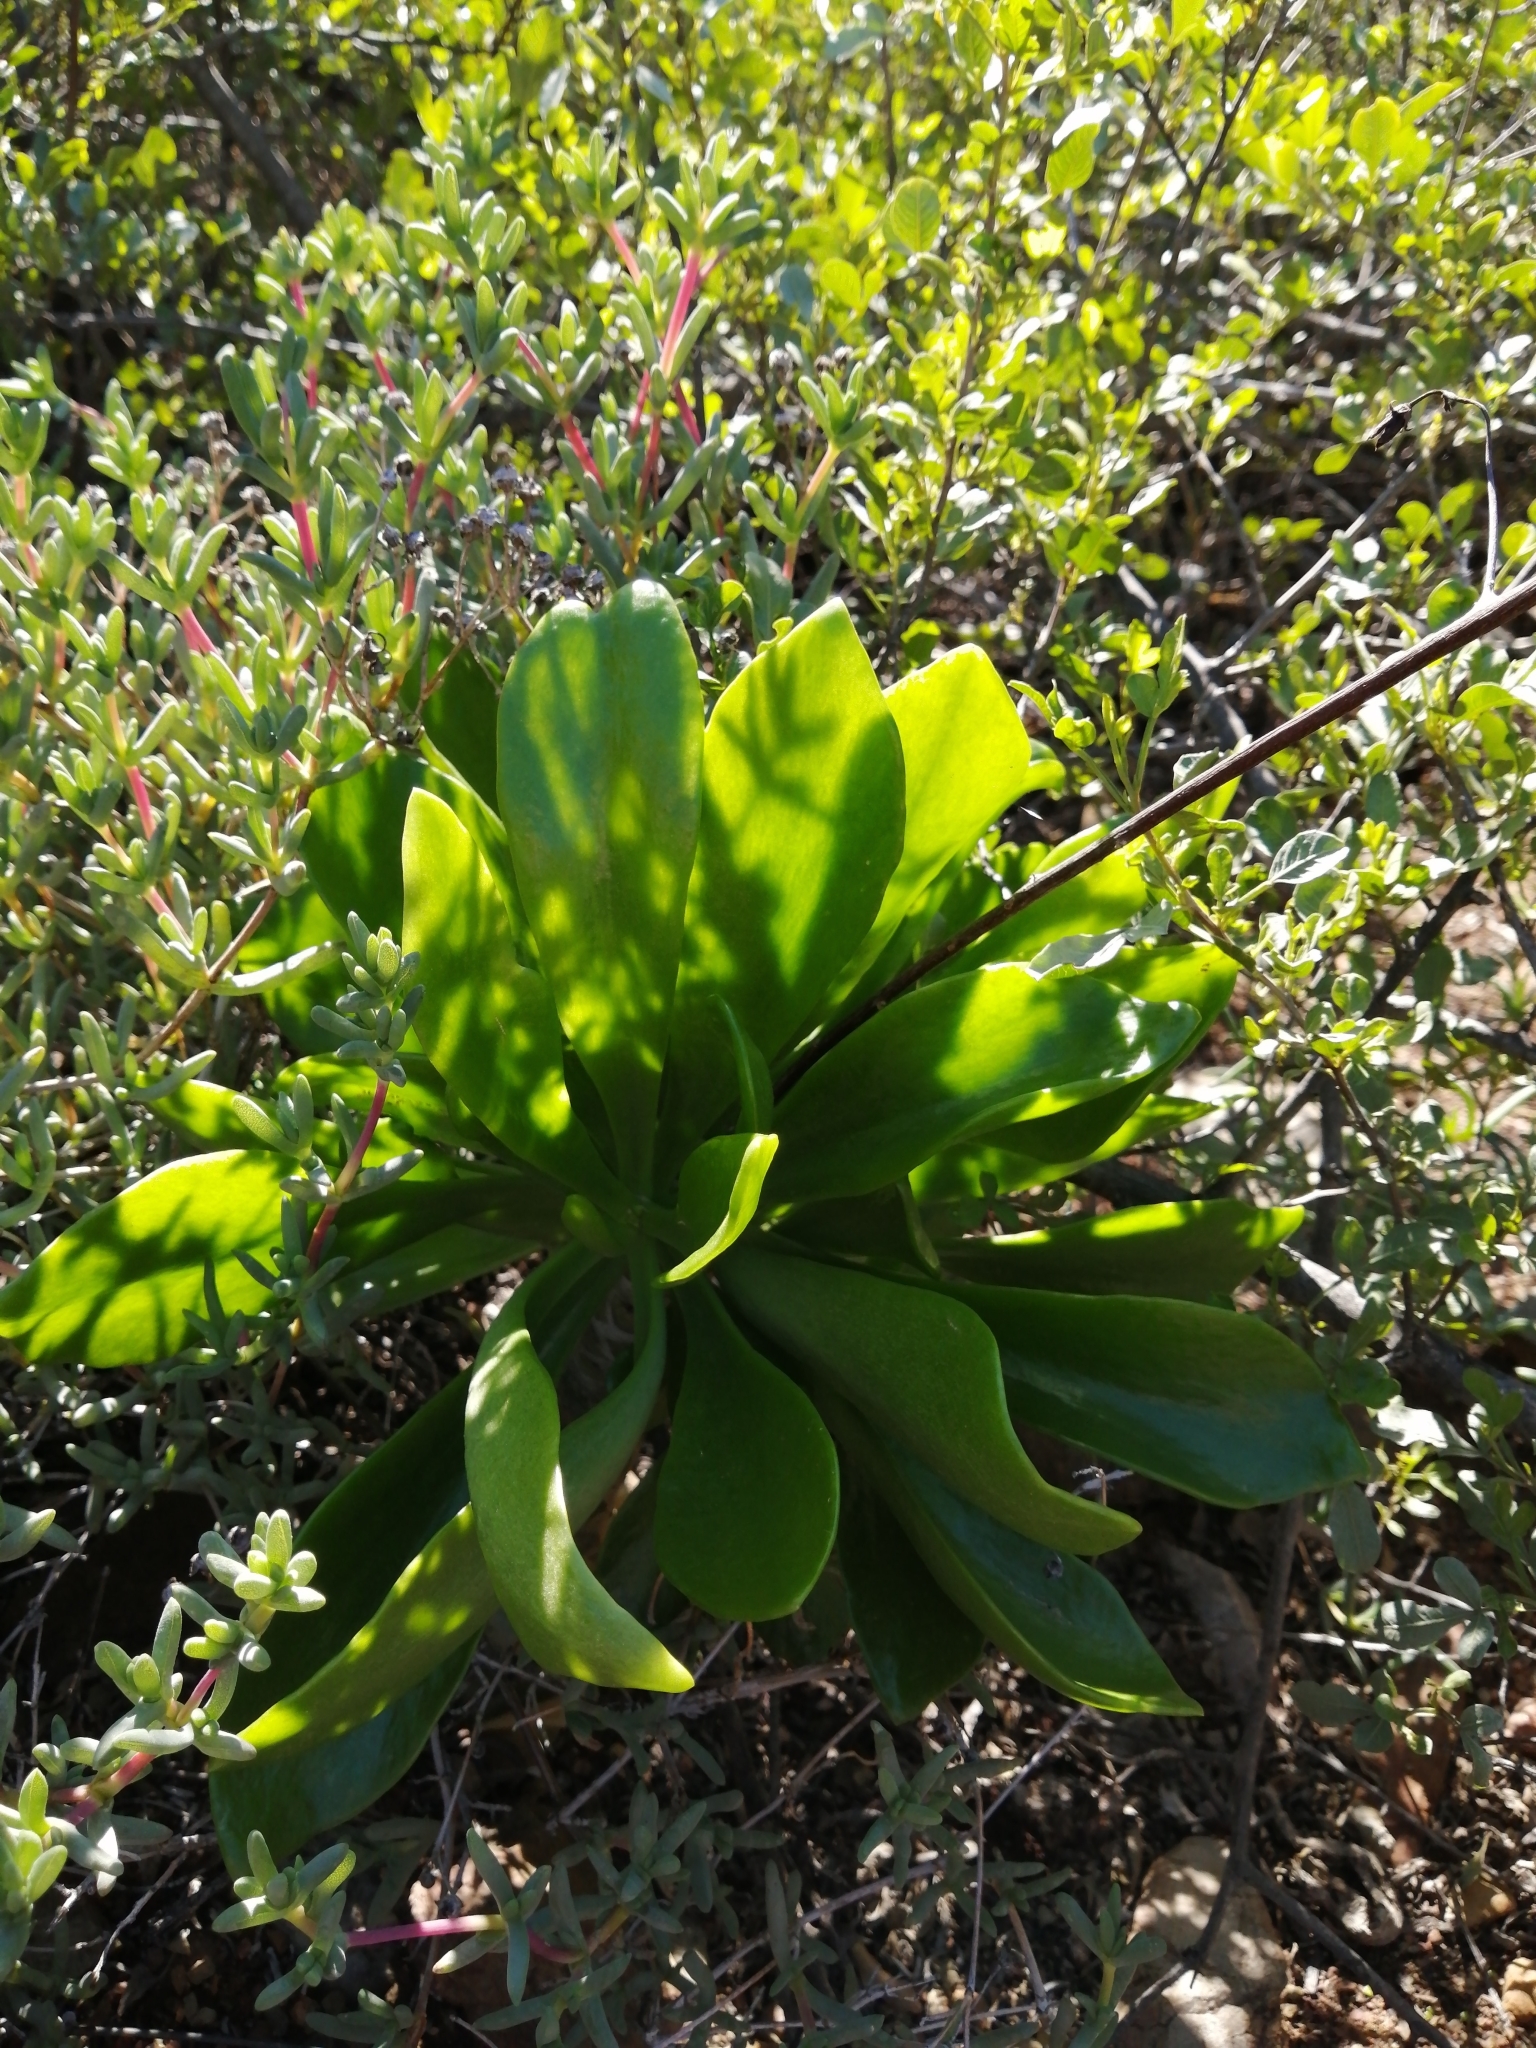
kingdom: Plantae
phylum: Tracheophyta
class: Magnoliopsida
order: Saxifragales
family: Crassulaceae
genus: Tylecodon
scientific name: Tylecodon paniculatus
